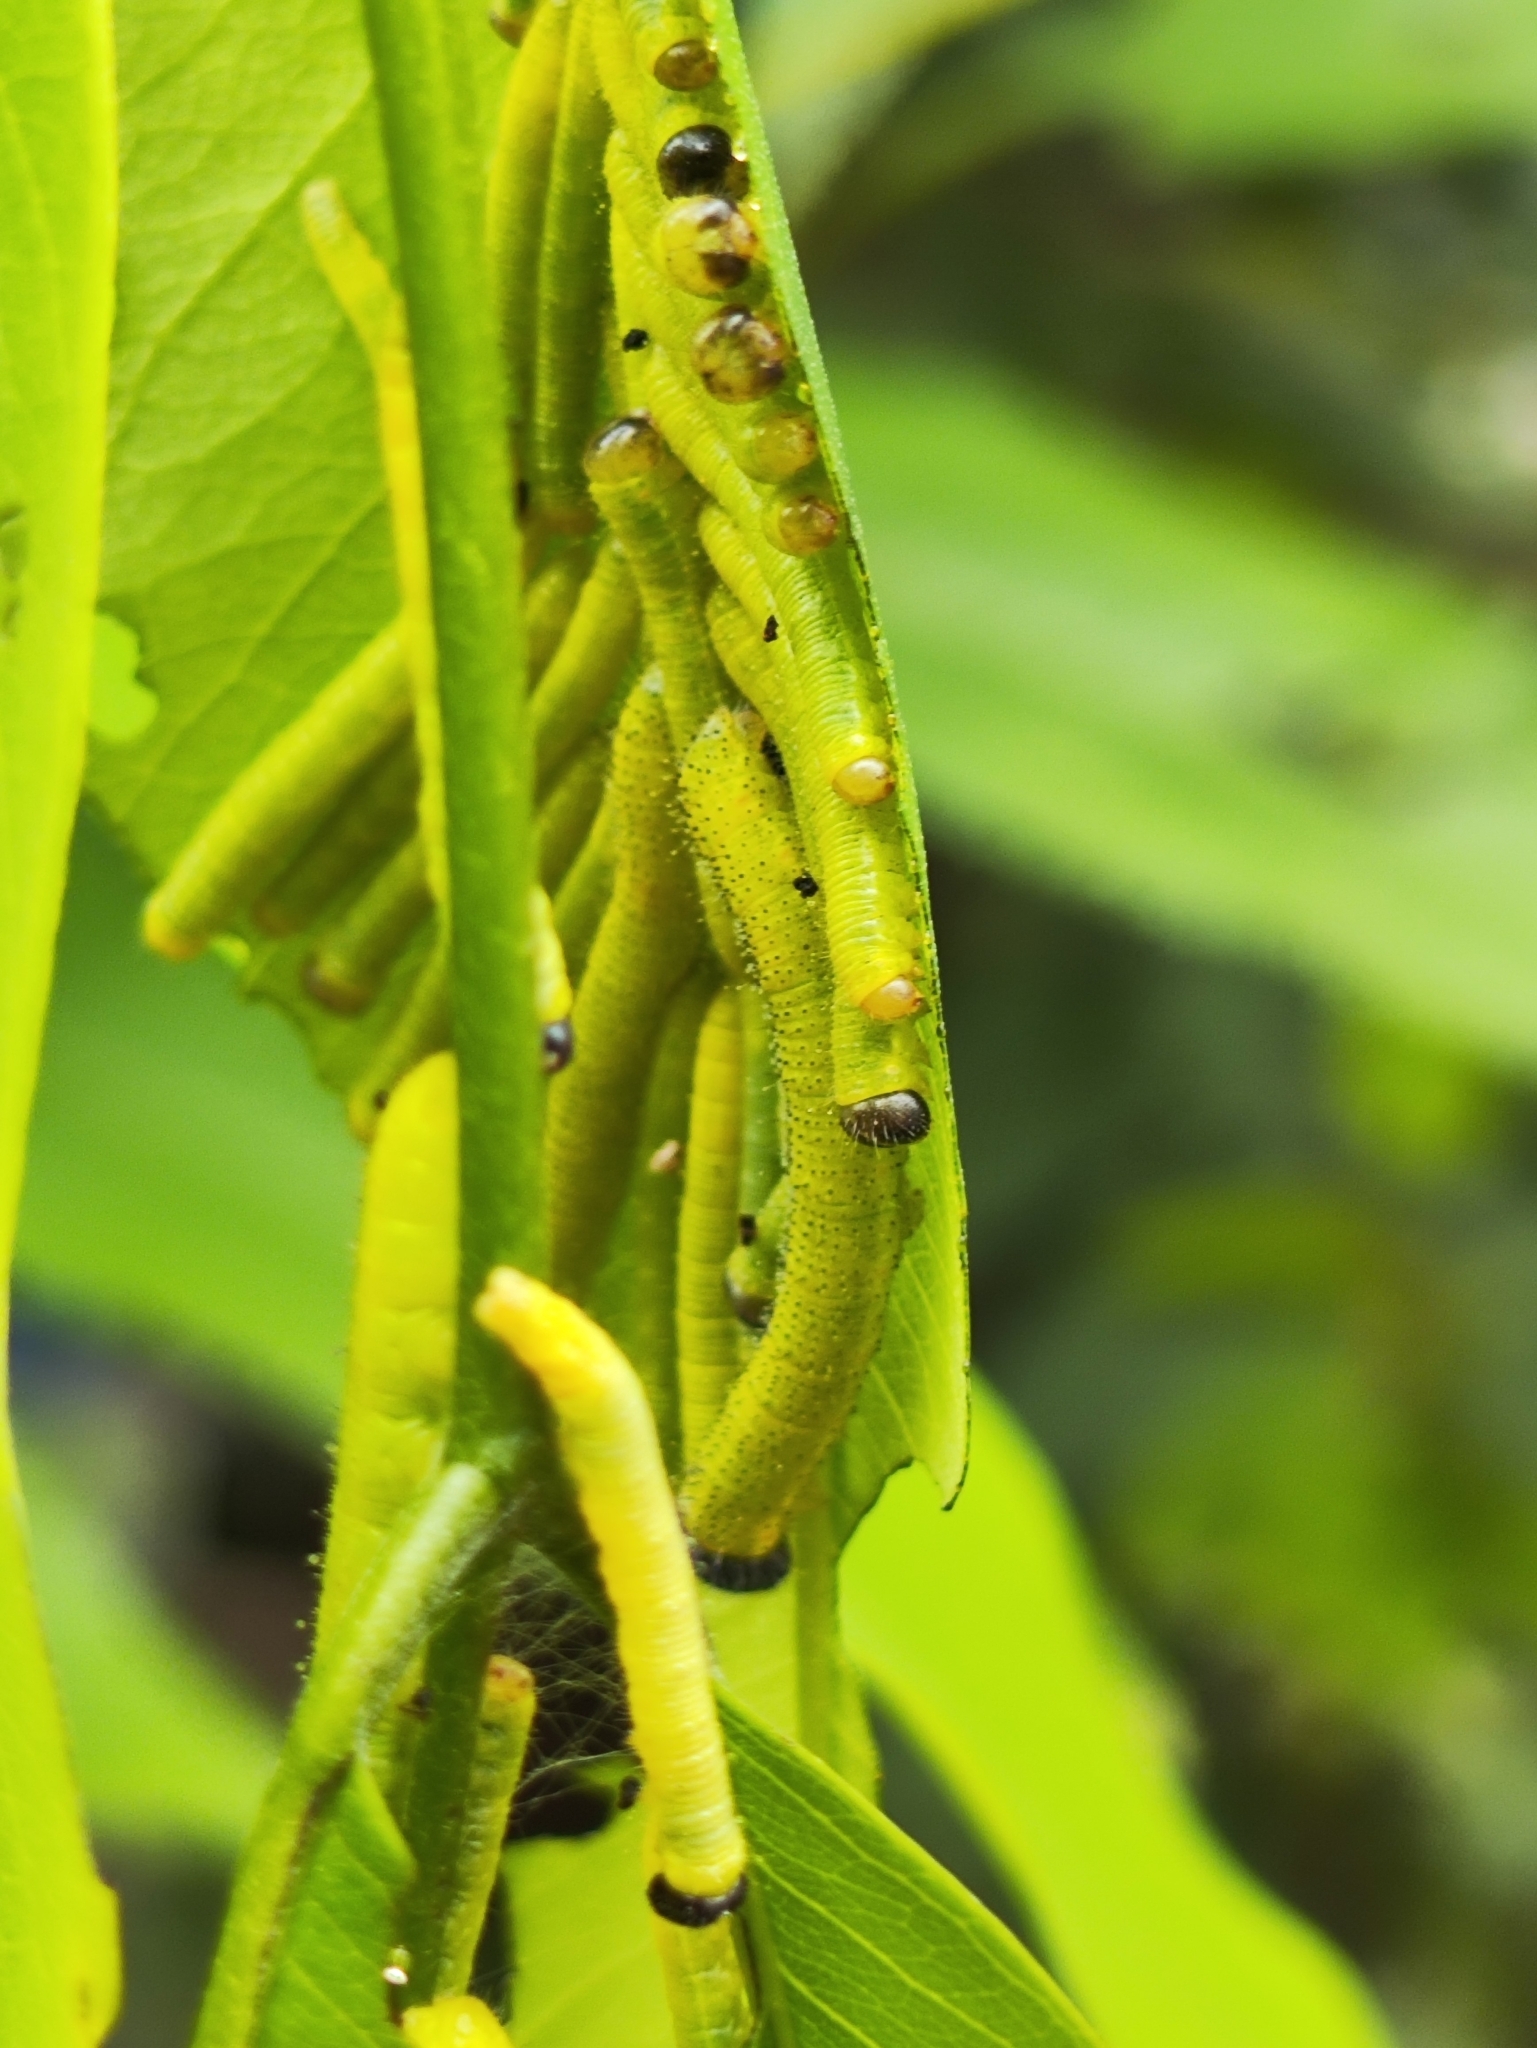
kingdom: Animalia
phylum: Arthropoda
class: Insecta
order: Lepidoptera
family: Pieridae
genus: Eurema
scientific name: Eurema blanda
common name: Three-spot grass yellow
